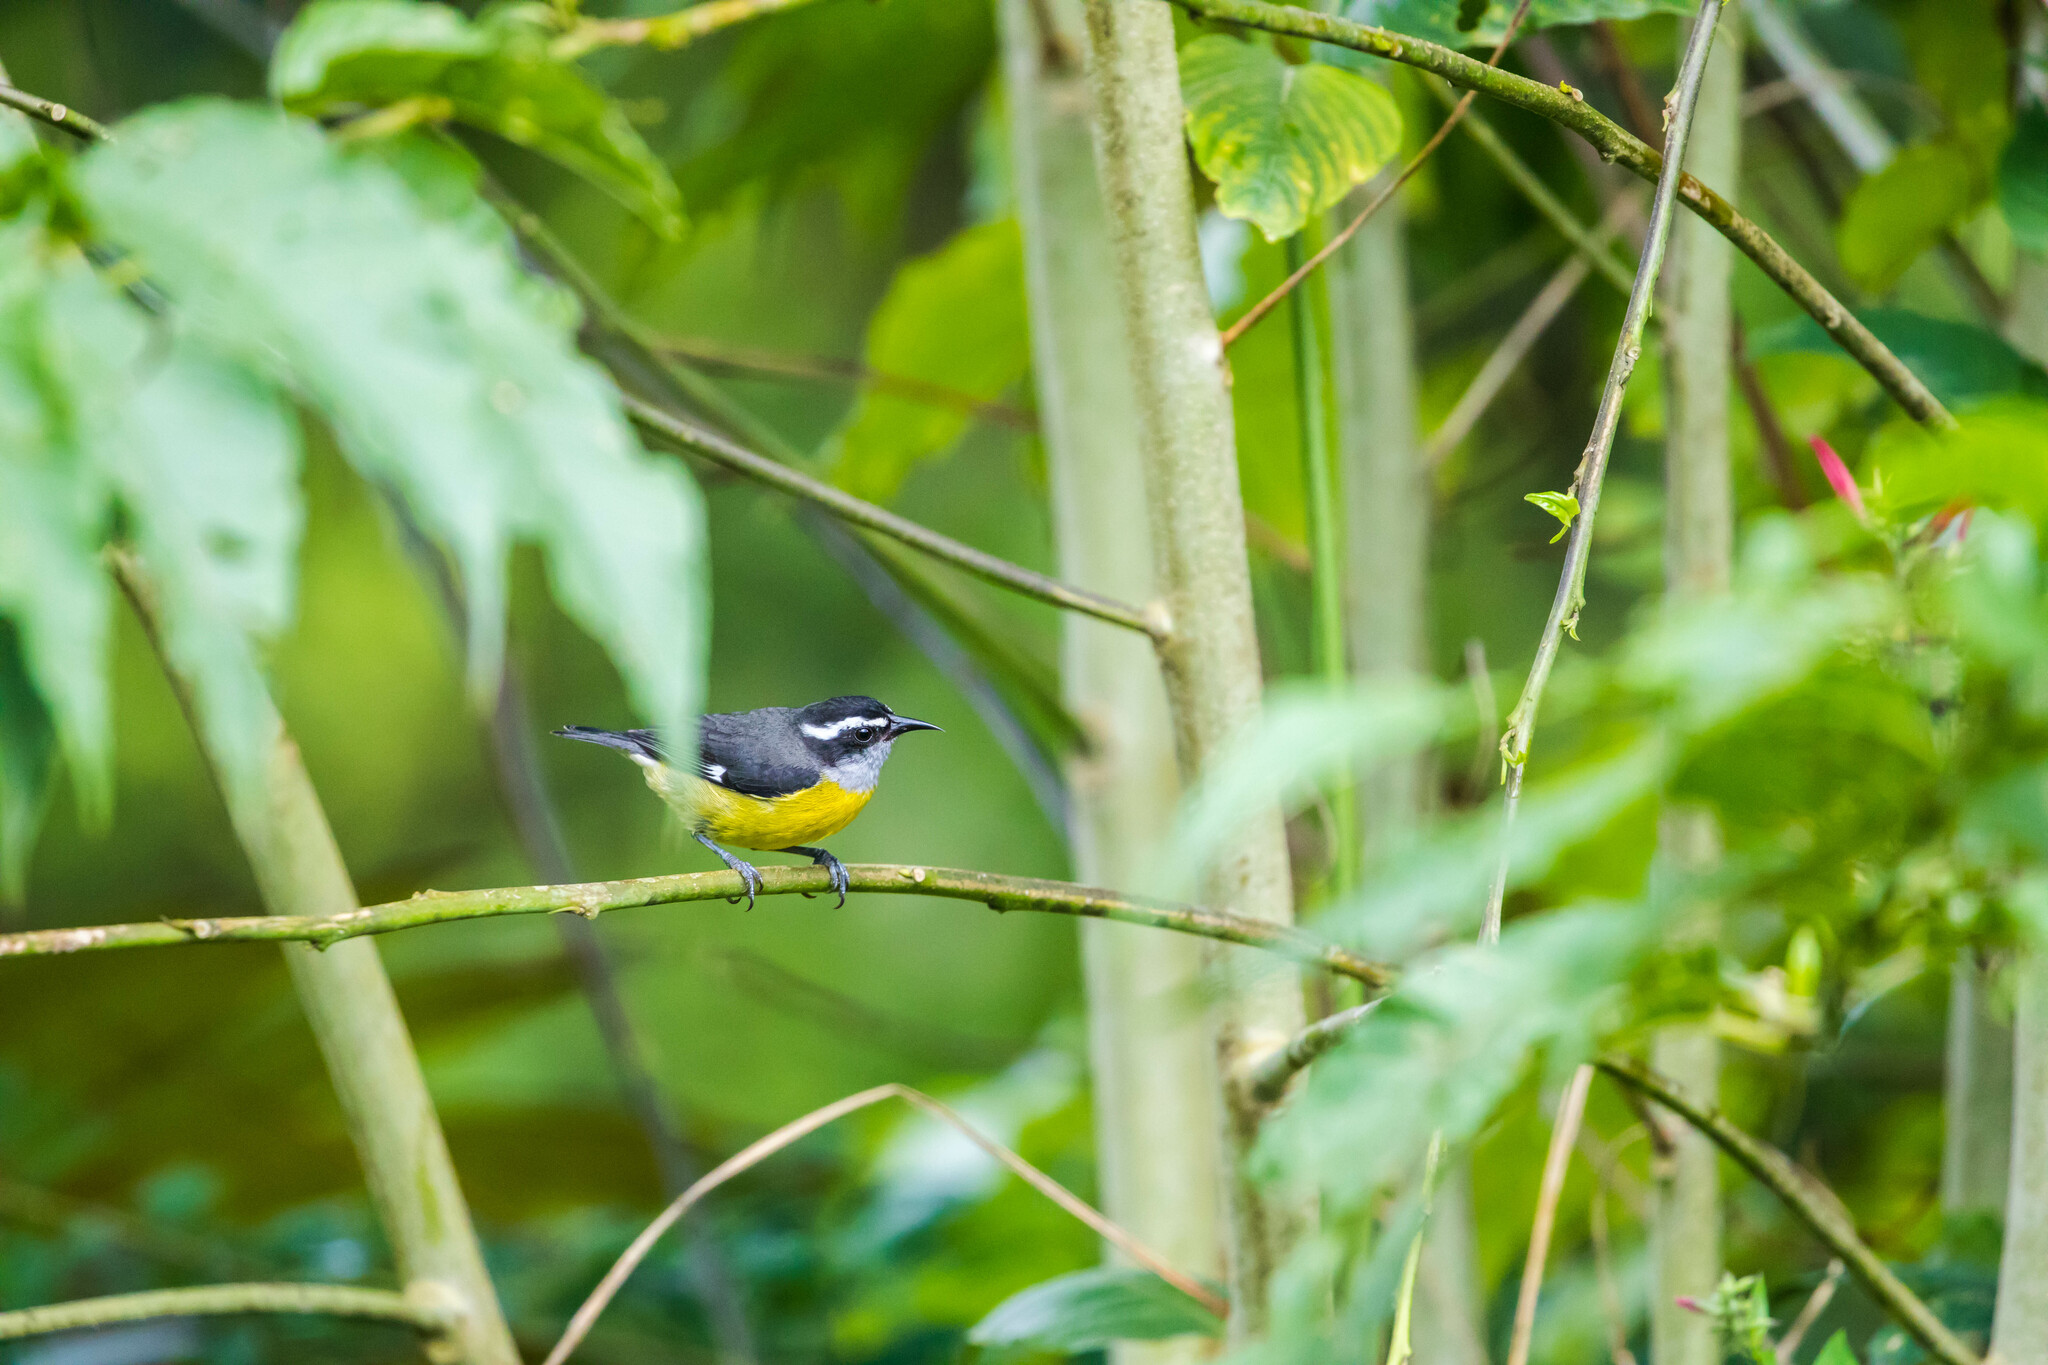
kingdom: Animalia
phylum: Chordata
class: Aves
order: Passeriformes
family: Thraupidae
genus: Coereba
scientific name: Coereba flaveola
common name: Bananaquit
